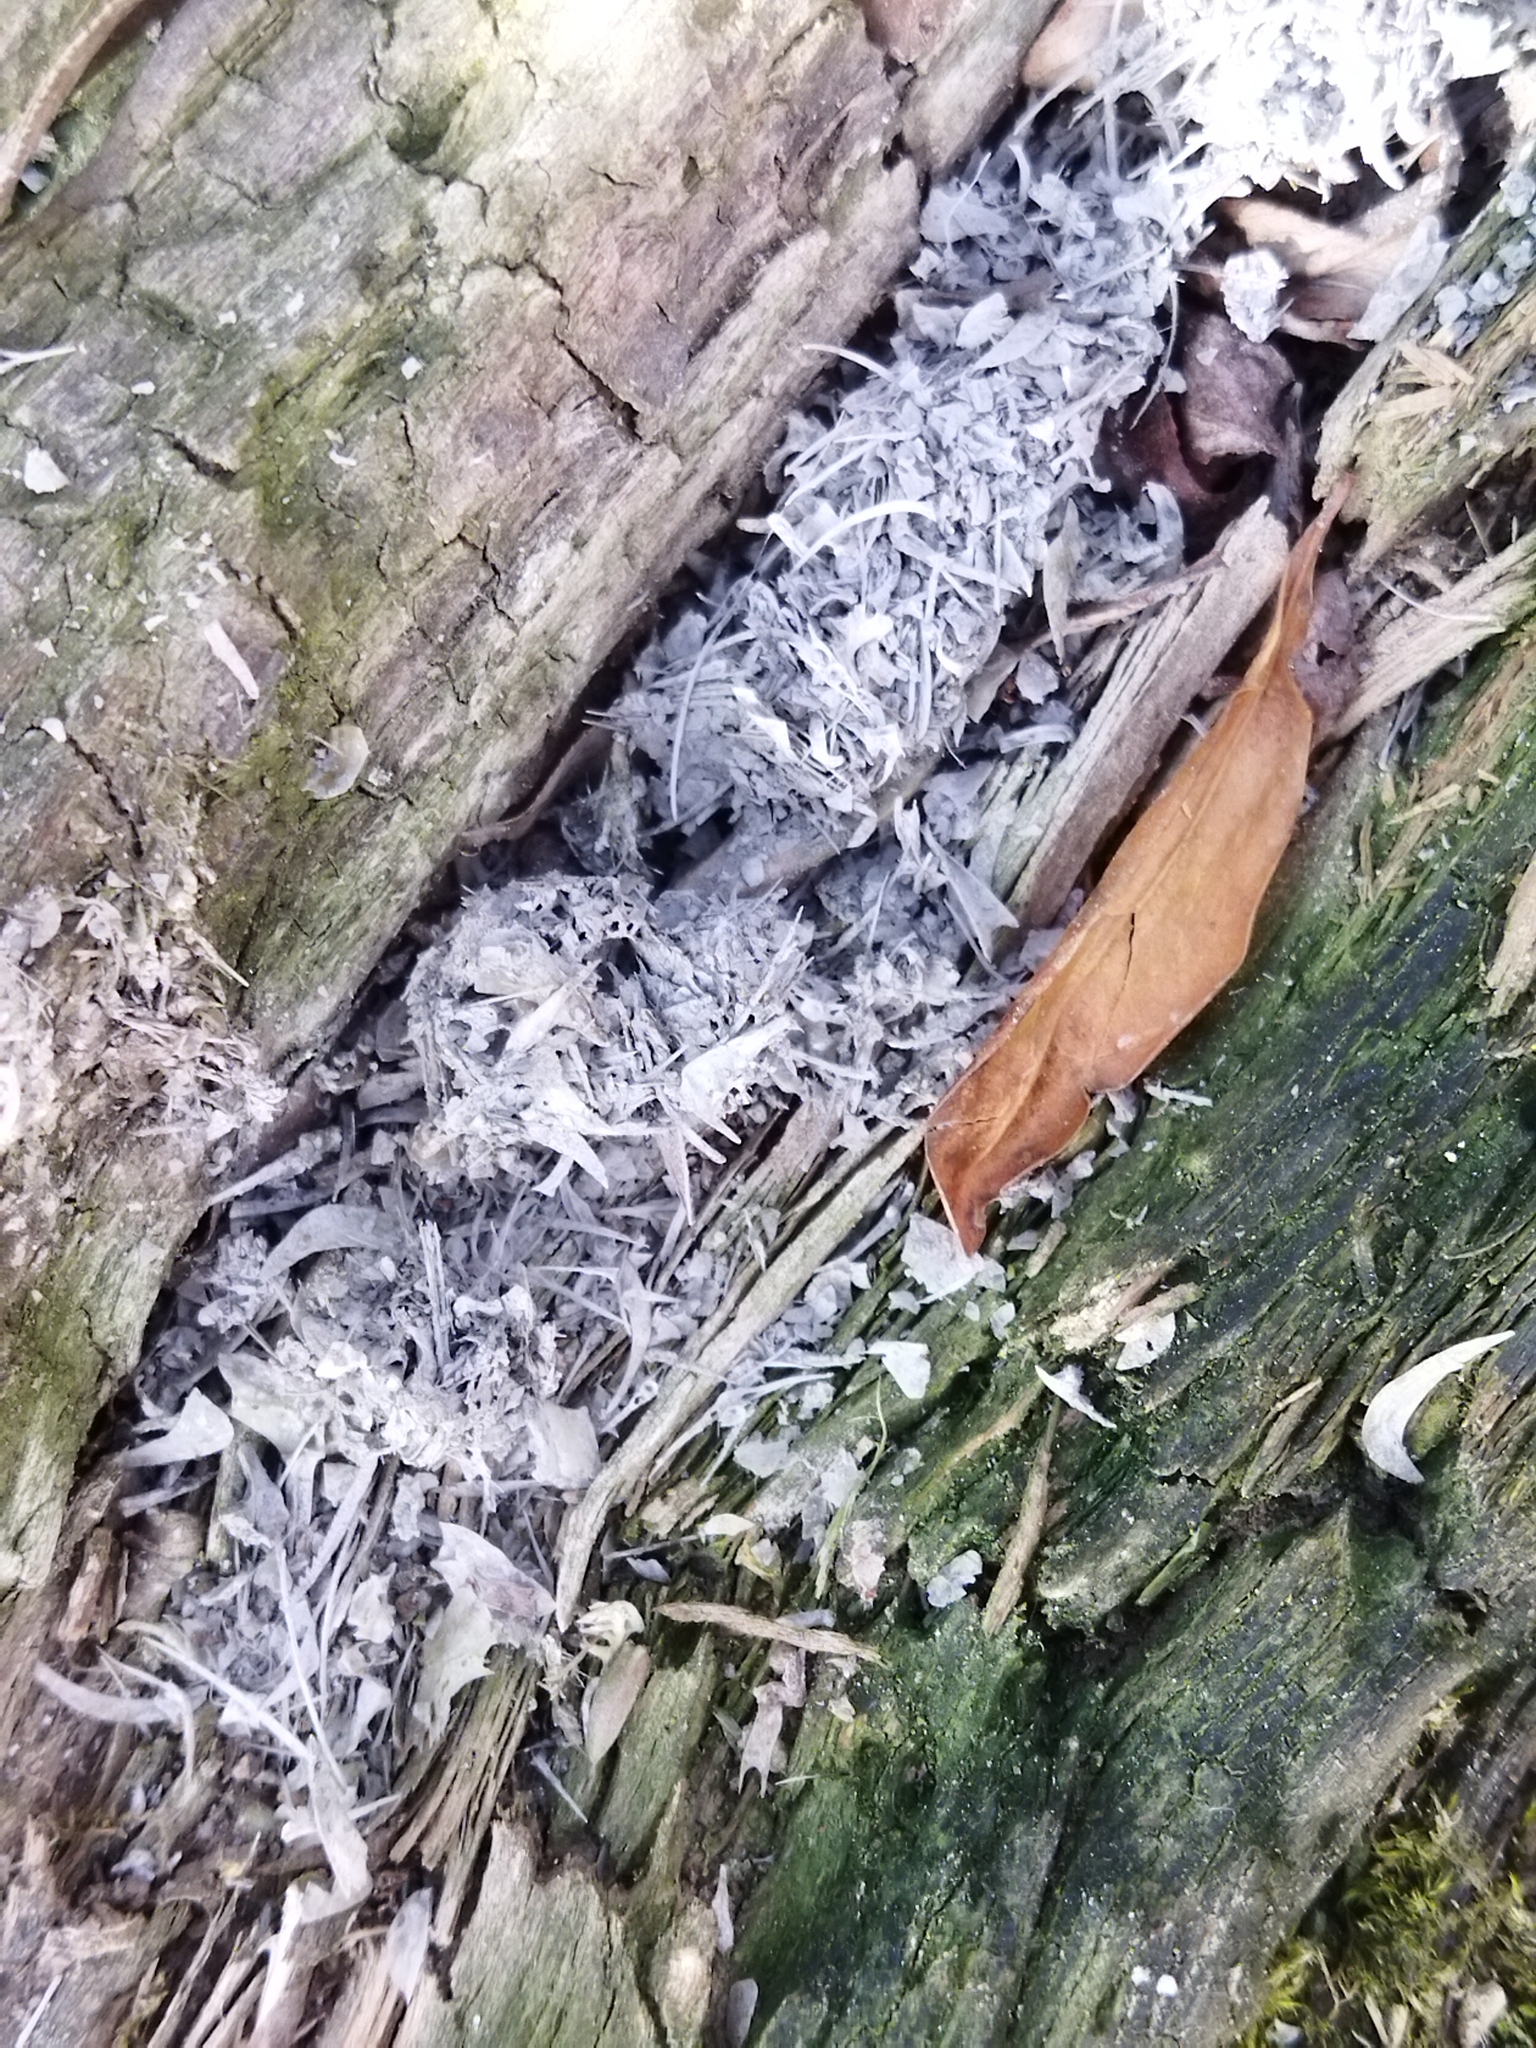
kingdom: Animalia
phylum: Chordata
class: Mammalia
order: Carnivora
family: Mustelidae
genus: Lutra
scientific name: Lutra lutra
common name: European otter
